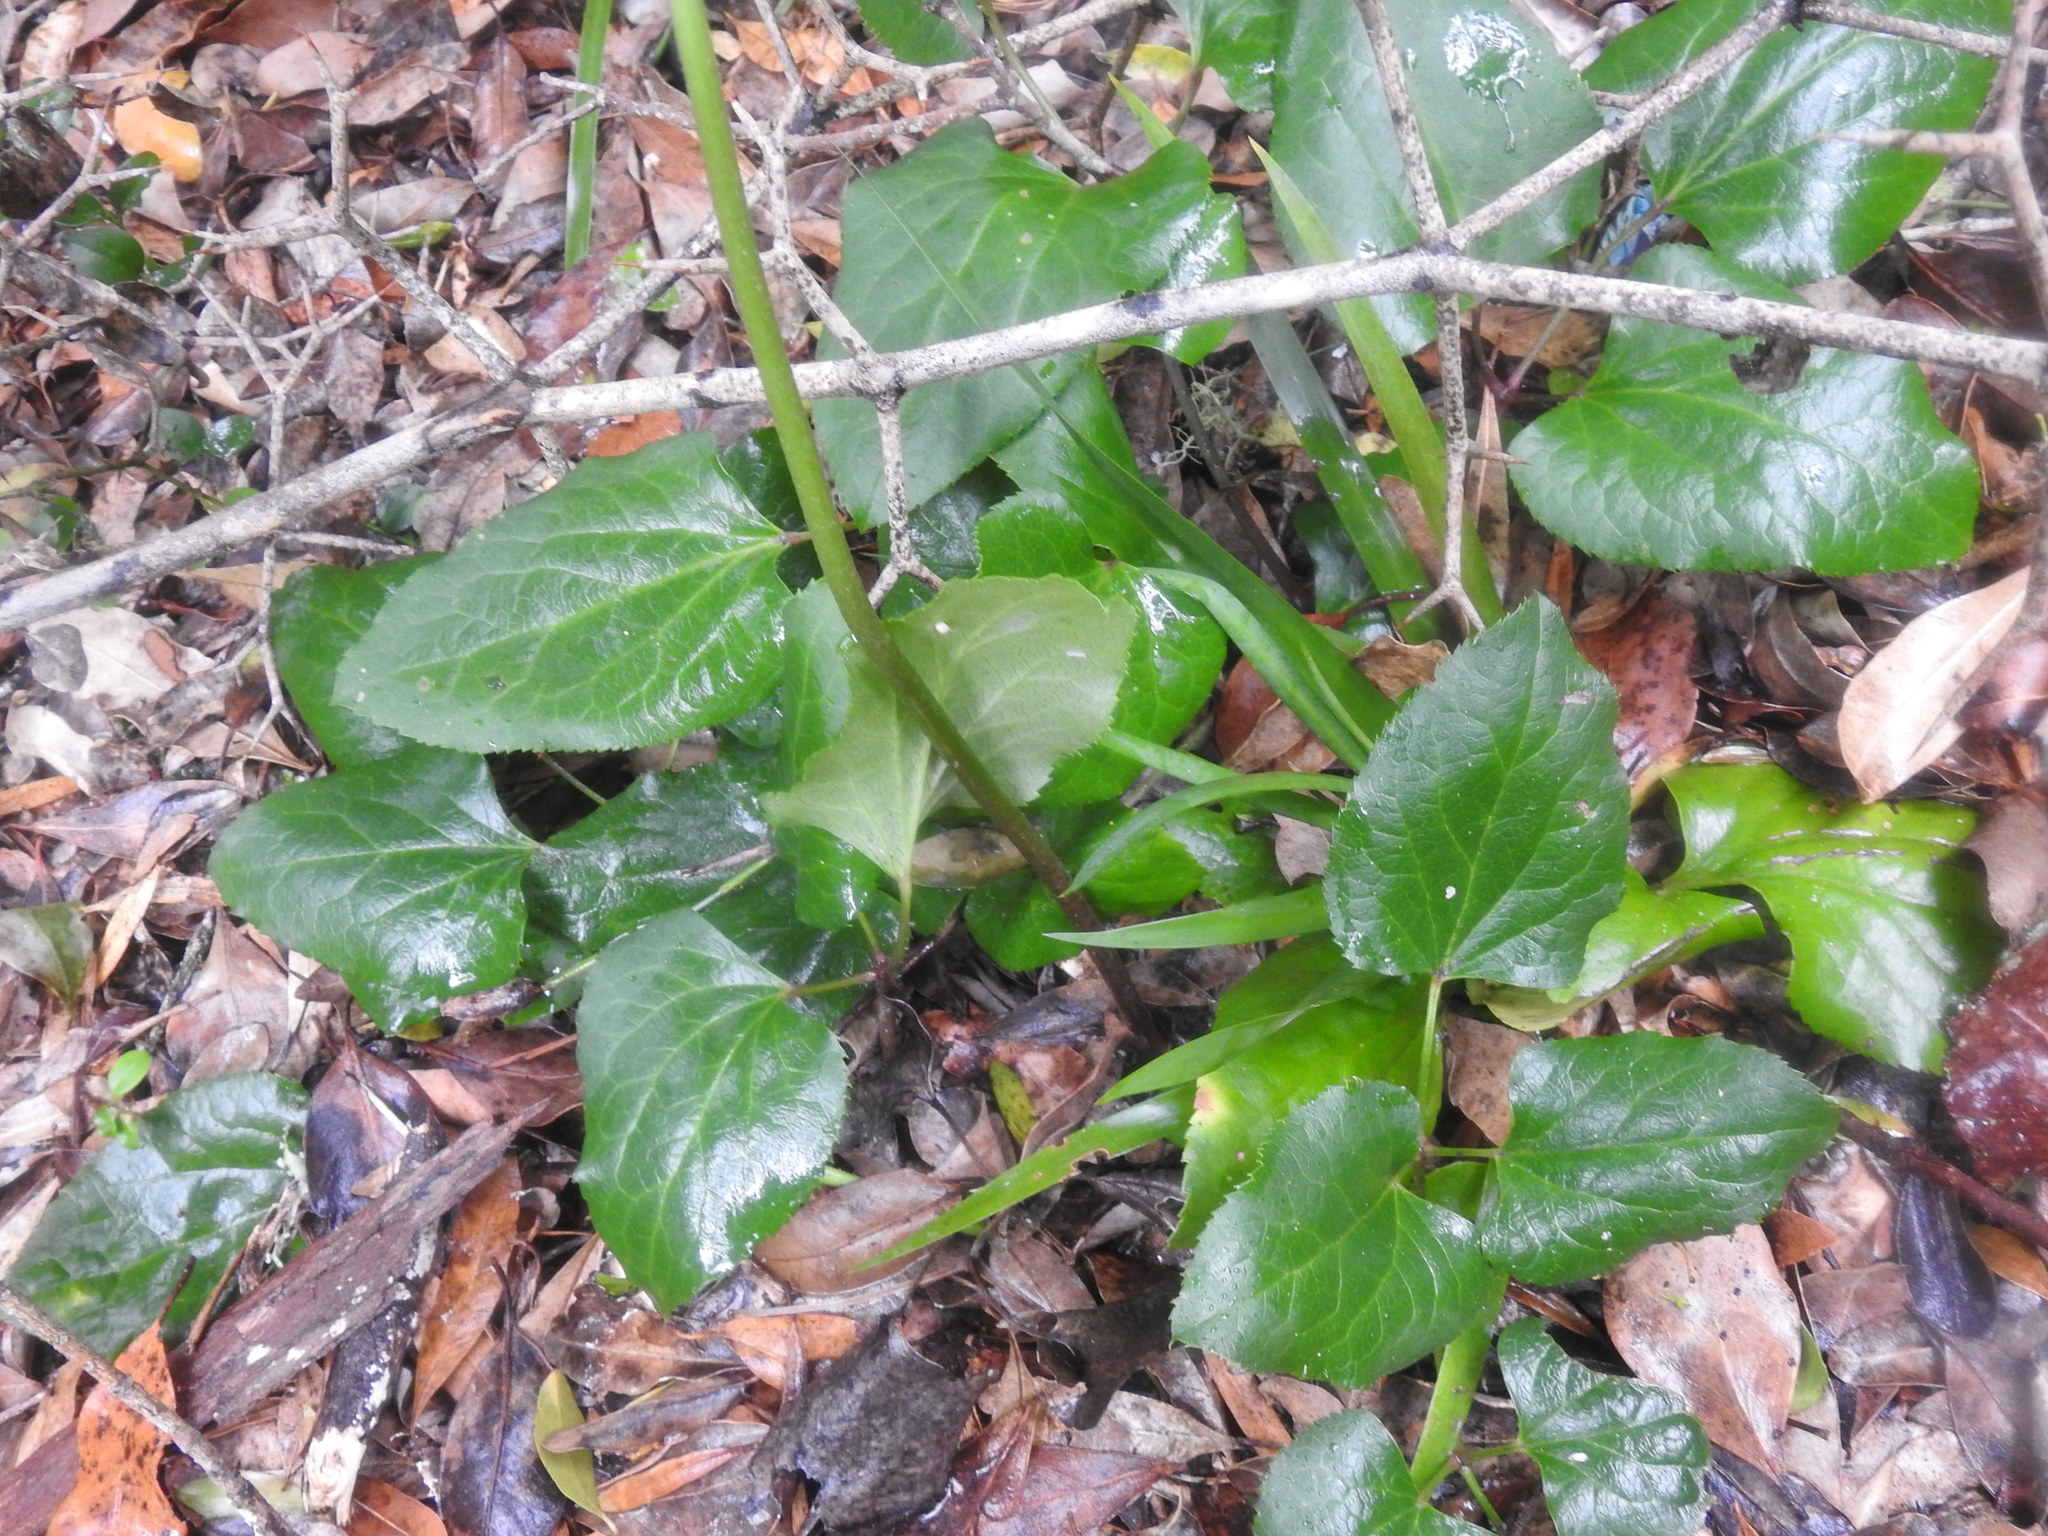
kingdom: Plantae
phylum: Tracheophyta
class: Magnoliopsida
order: Ranunculales
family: Ranunculaceae
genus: Knowltonia
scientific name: Knowltonia vesicatoria
